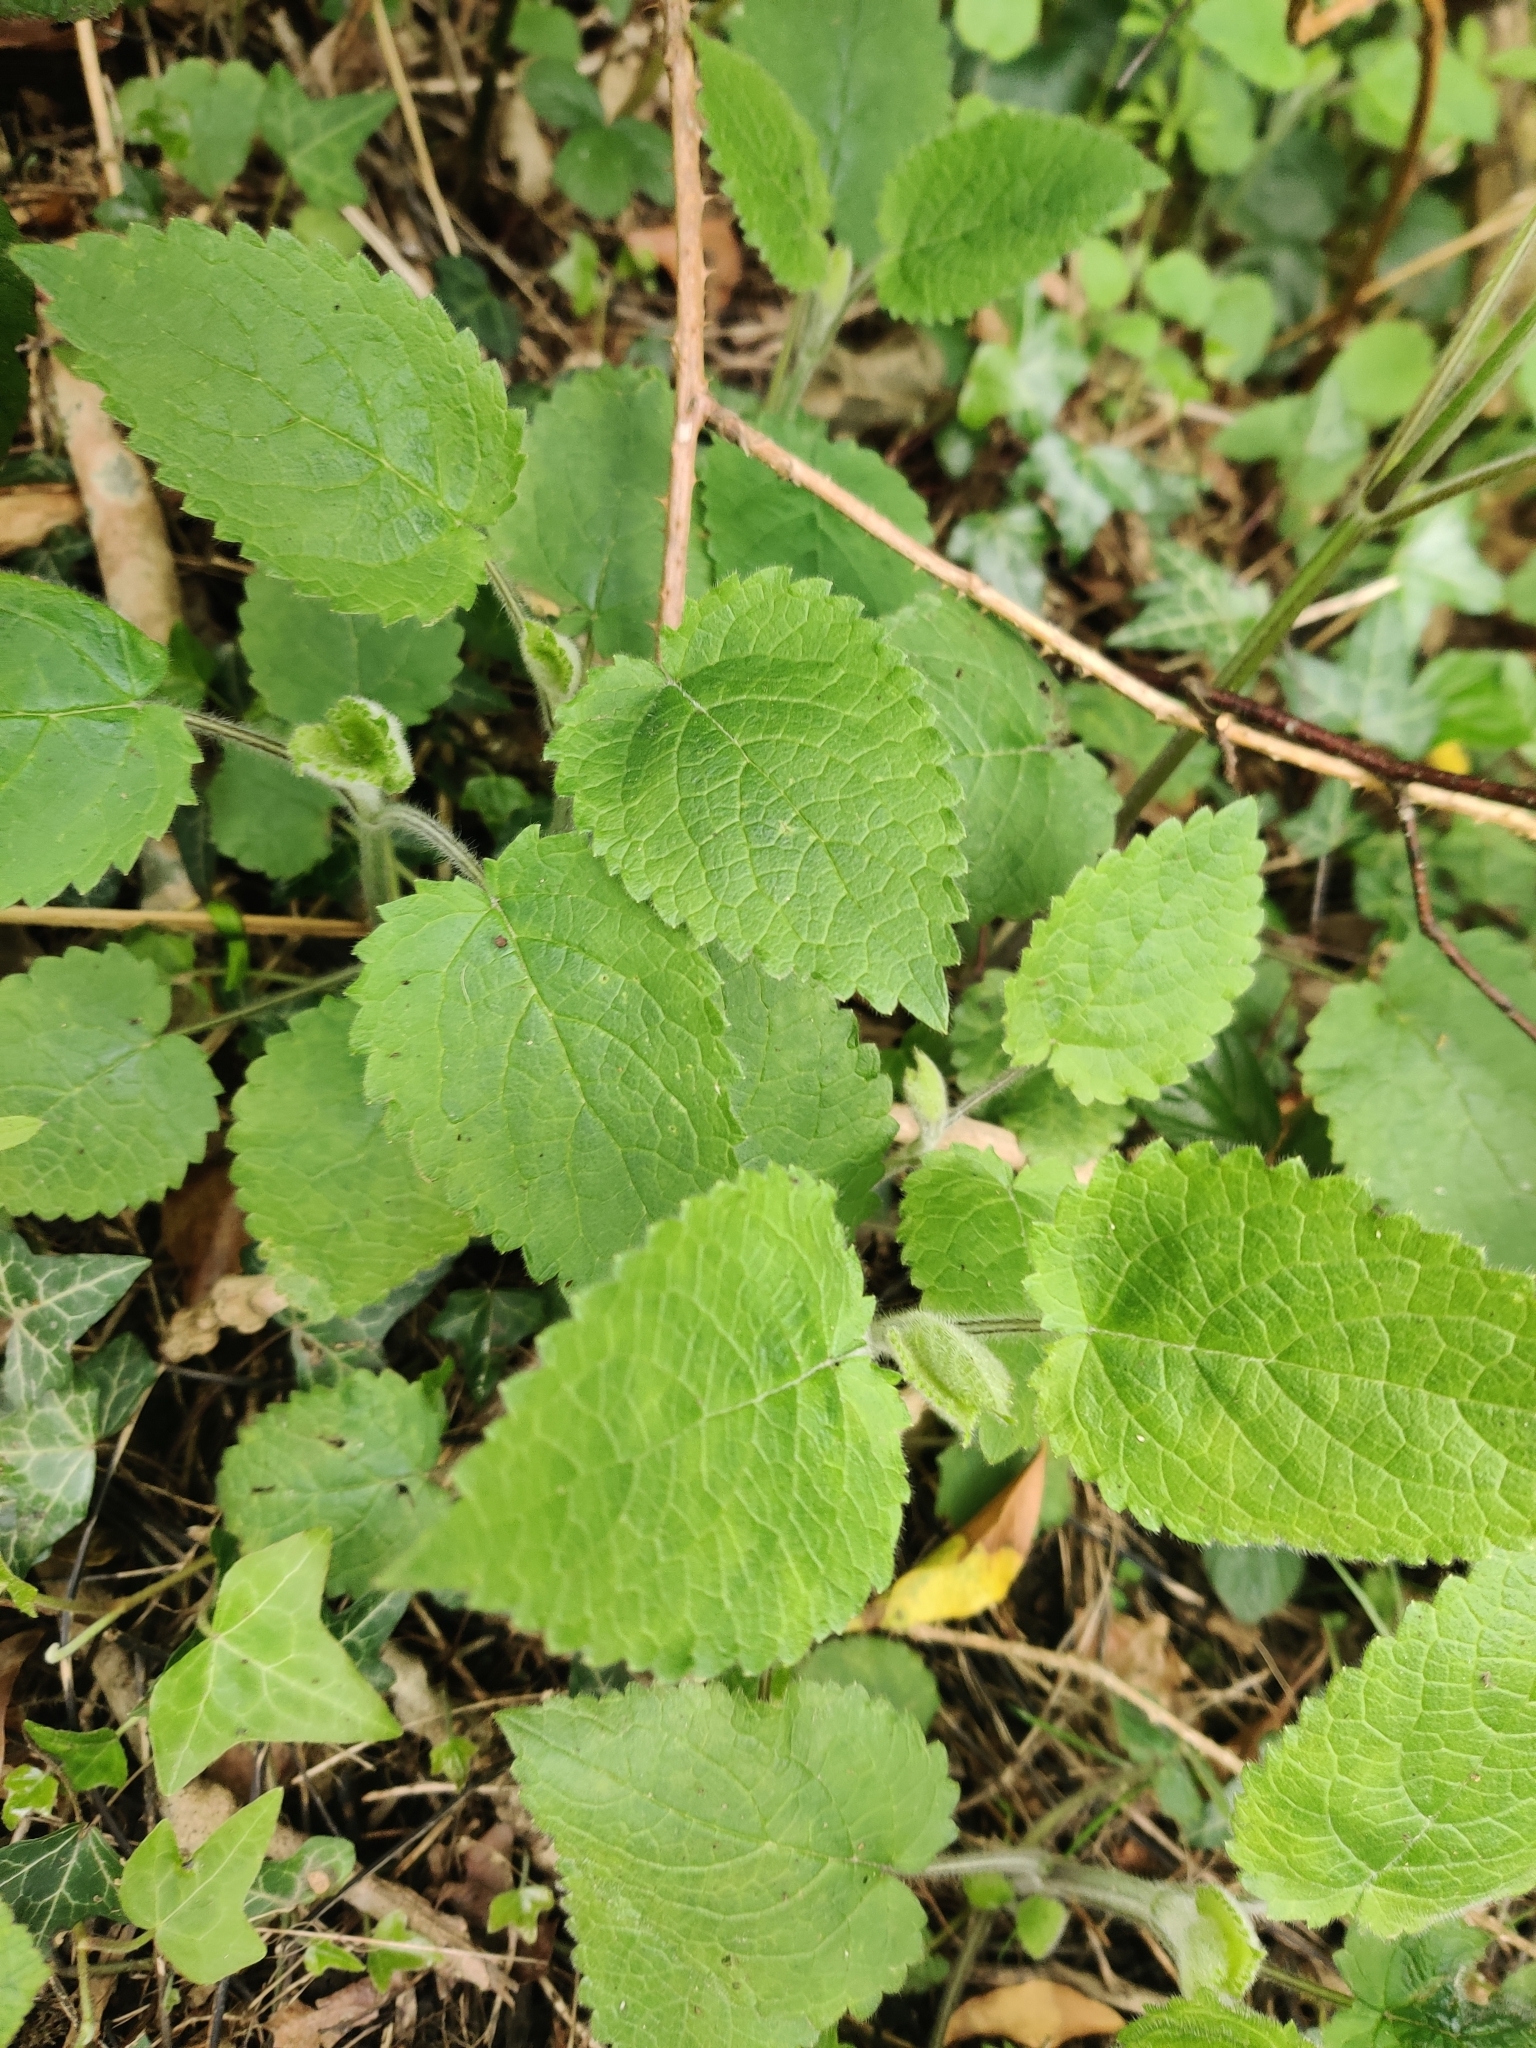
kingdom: Plantae
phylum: Tracheophyta
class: Magnoliopsida
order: Lamiales
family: Lamiaceae
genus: Stachys
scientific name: Stachys sylvatica
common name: Hedge woundwort
